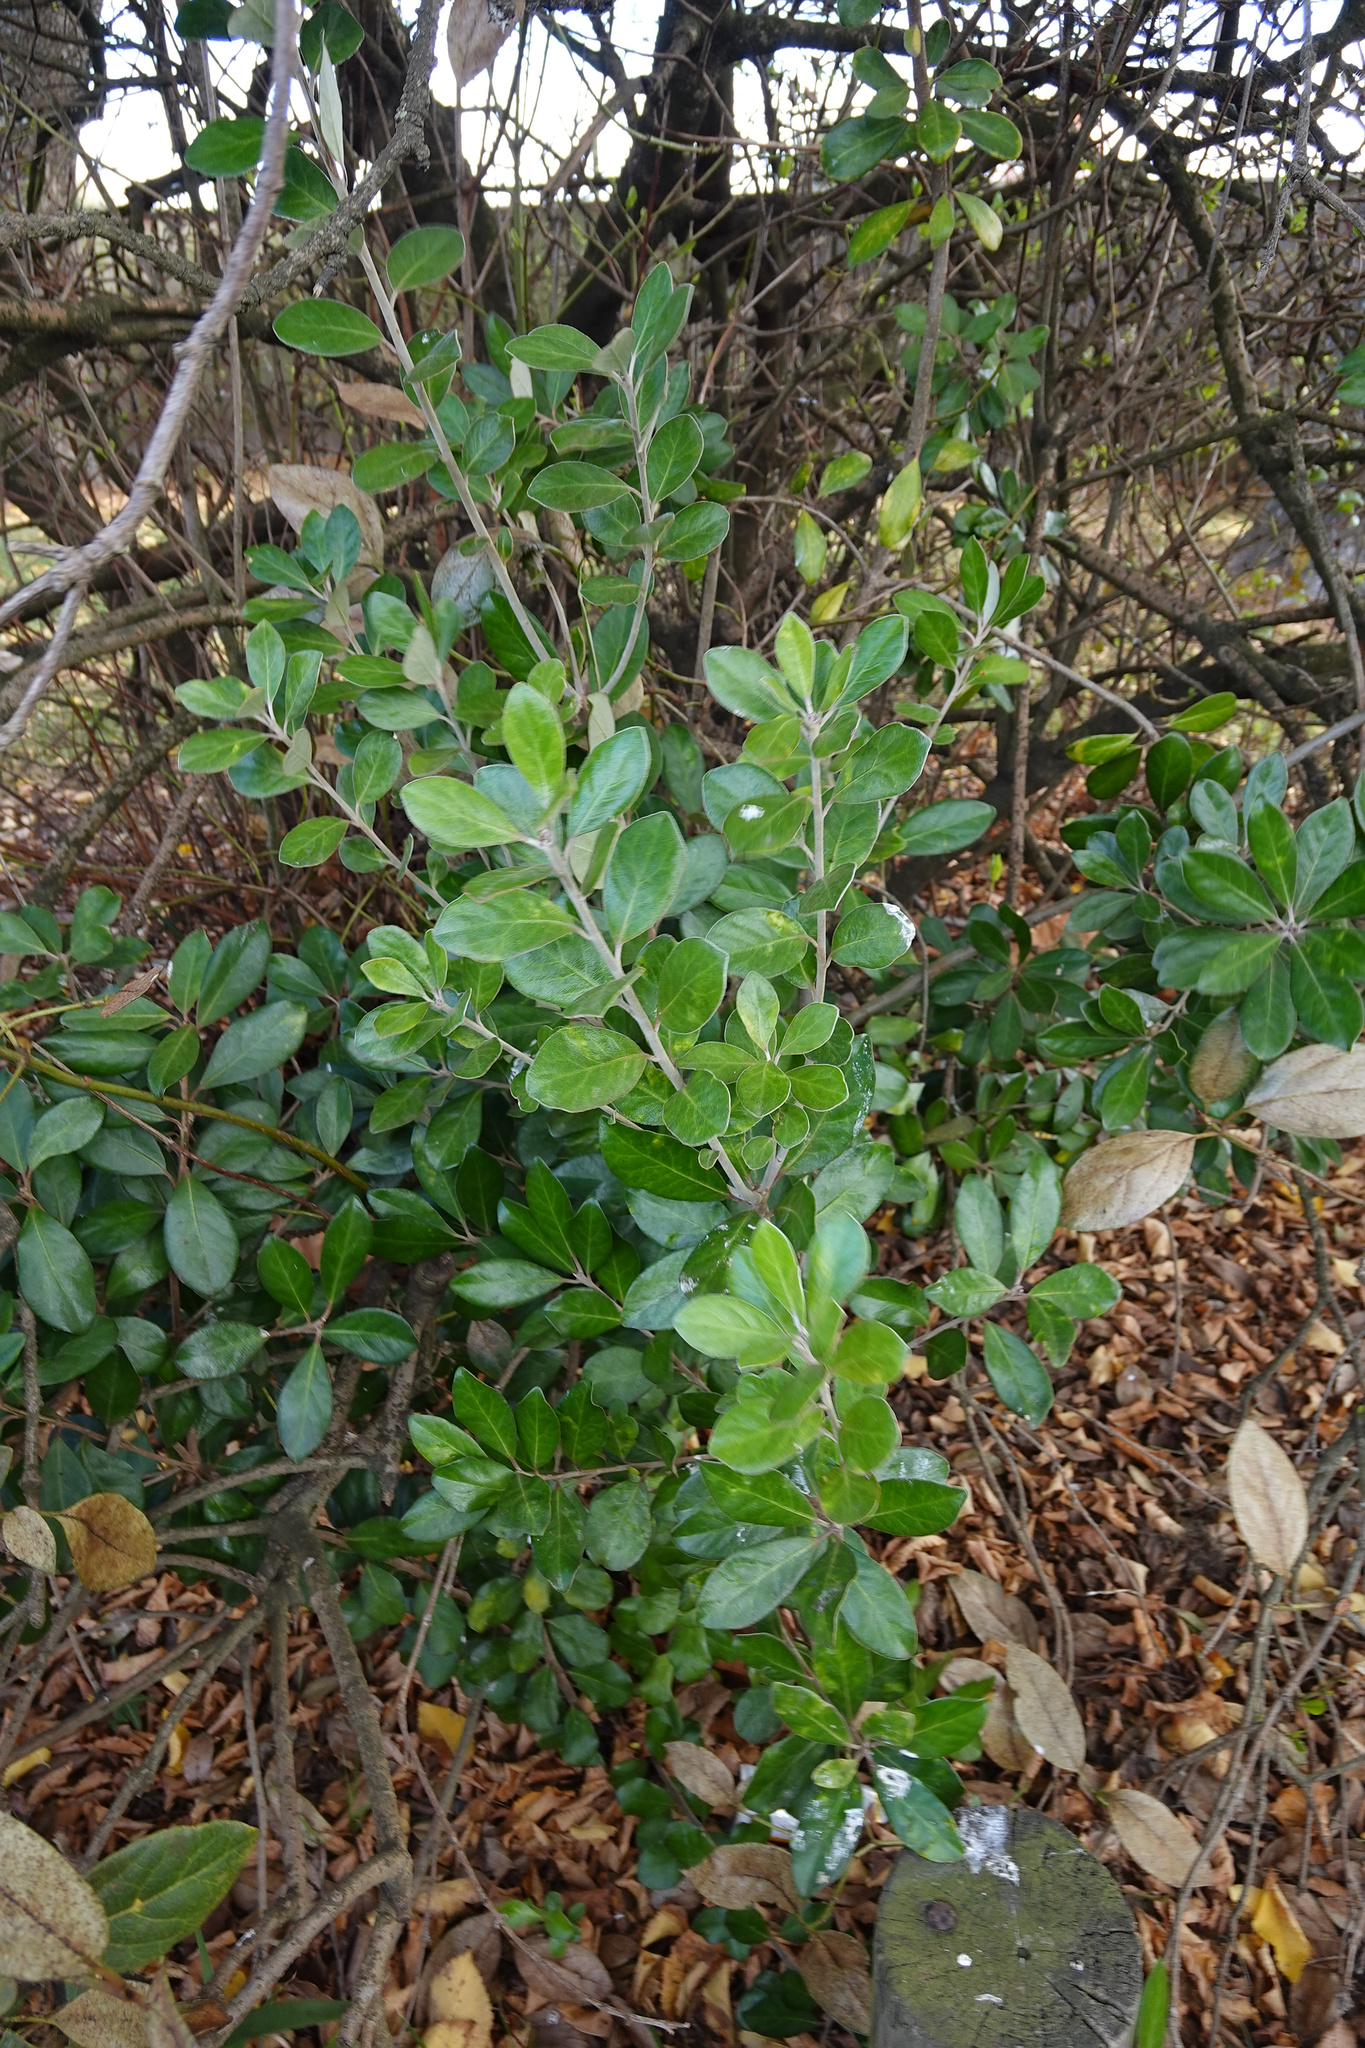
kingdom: Plantae
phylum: Tracheophyta
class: Magnoliopsida
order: Apiales
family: Pittosporaceae
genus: Pittosporum
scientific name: Pittosporum crassifolium
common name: Karo
